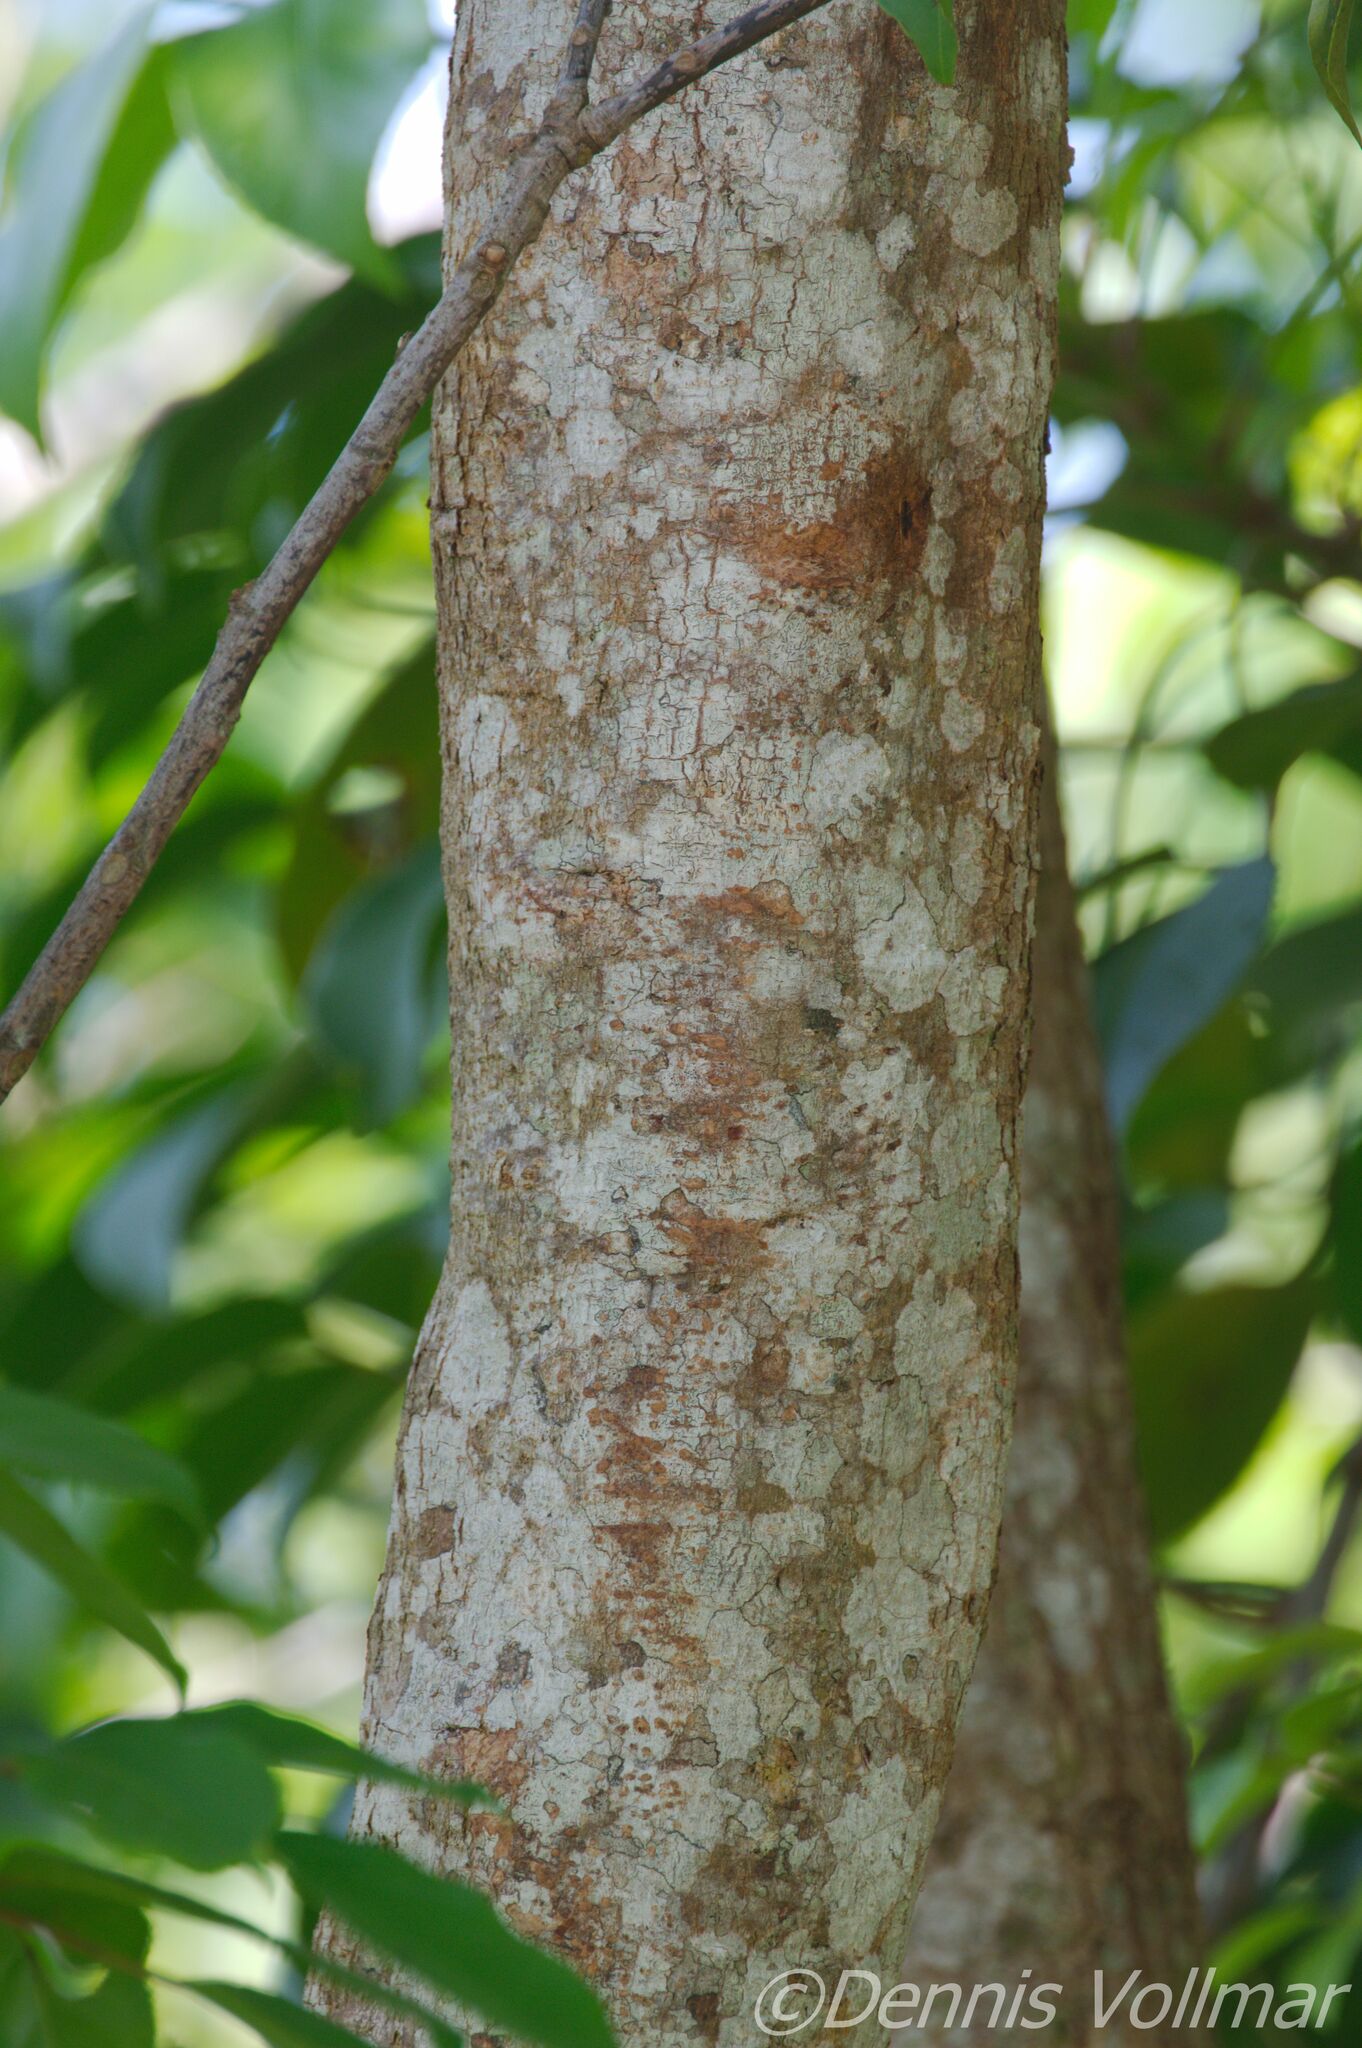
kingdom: Plantae
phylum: Tracheophyta
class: Magnoliopsida
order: Malpighiales
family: Phyllanthaceae
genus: Bischofia
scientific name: Bischofia javanica
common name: Javanese bishopwood
